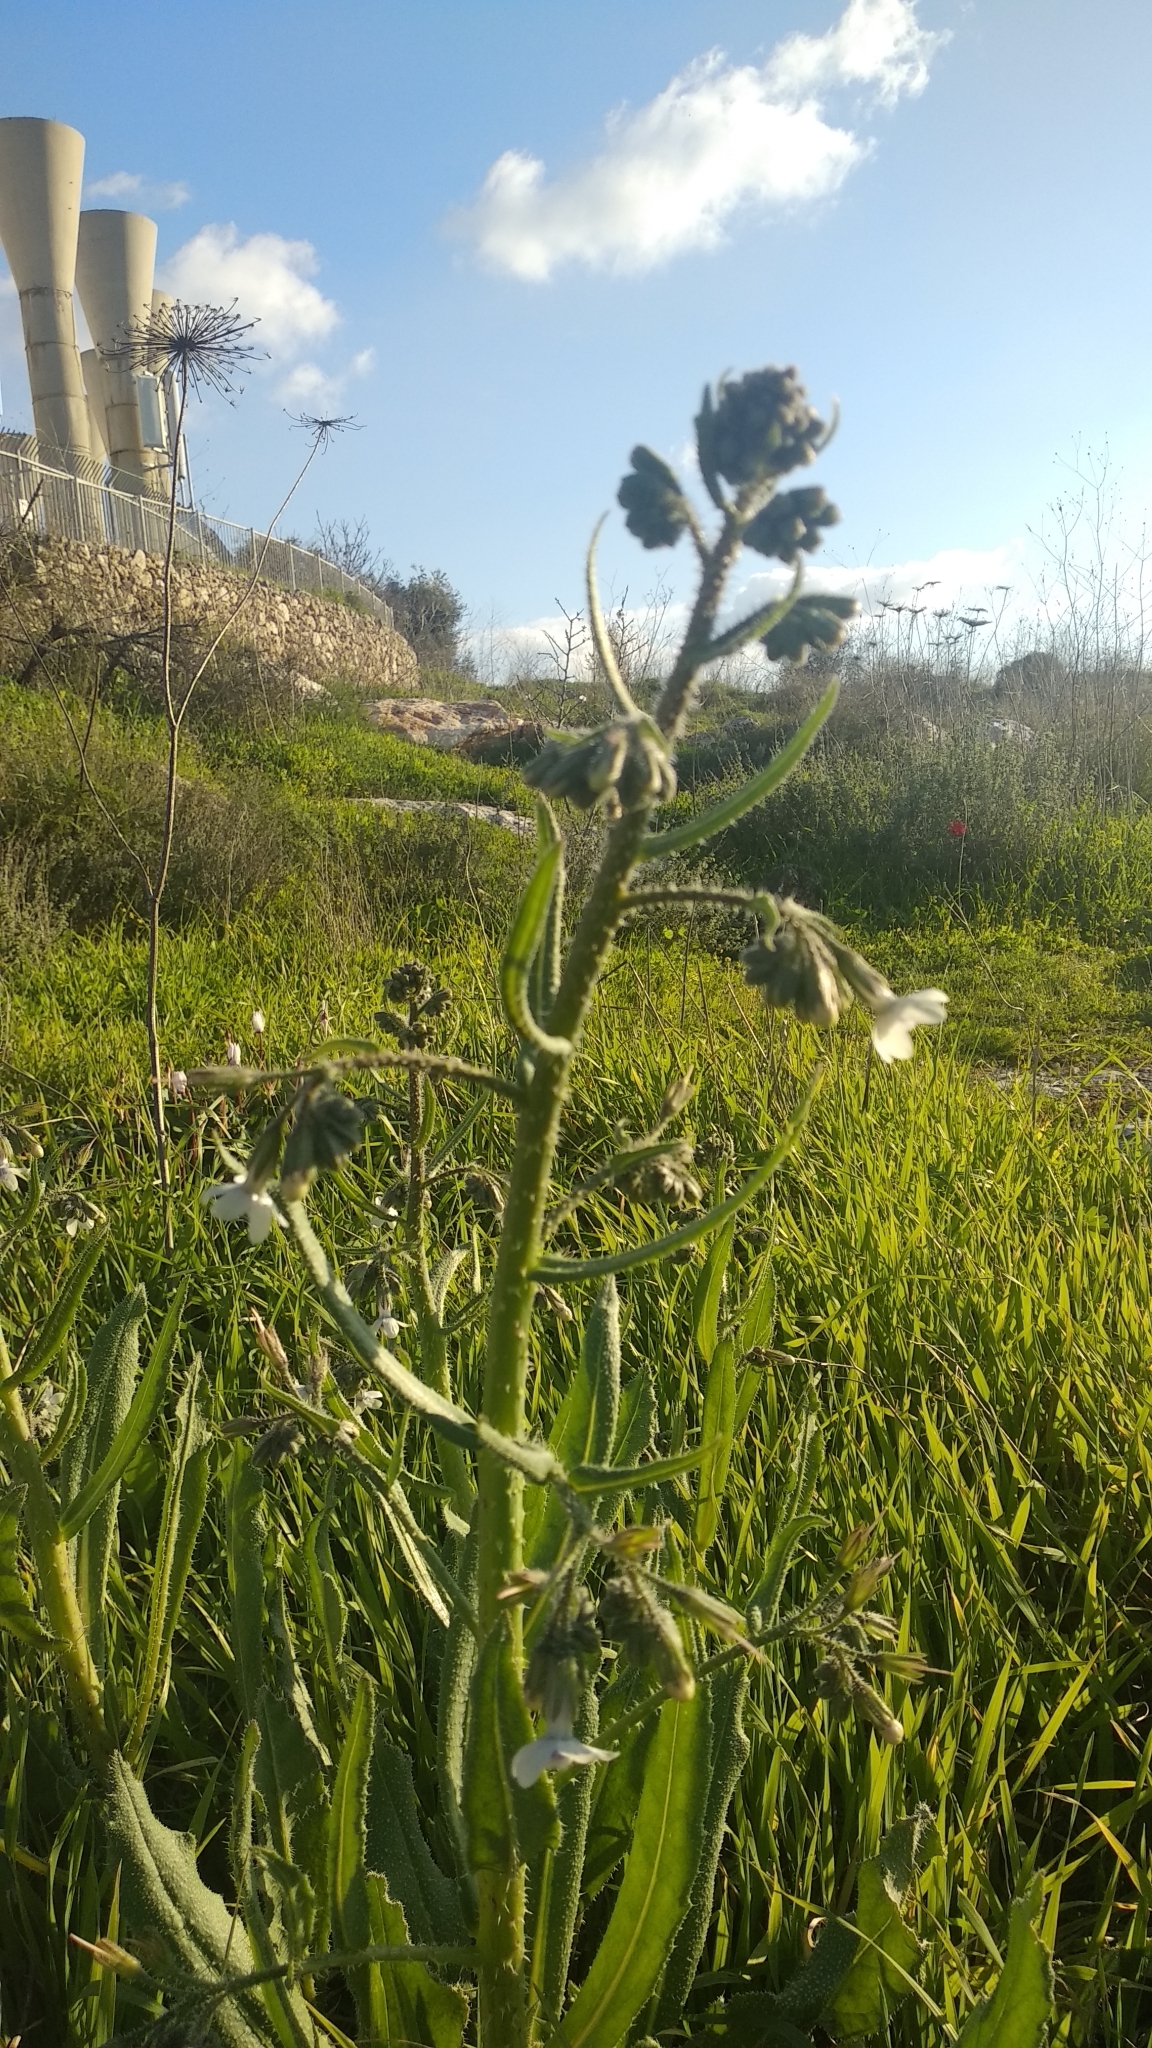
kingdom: Plantae
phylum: Tracheophyta
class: Magnoliopsida
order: Boraginales
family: Boraginaceae
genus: Anchusa
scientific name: Anchusa strigosa
